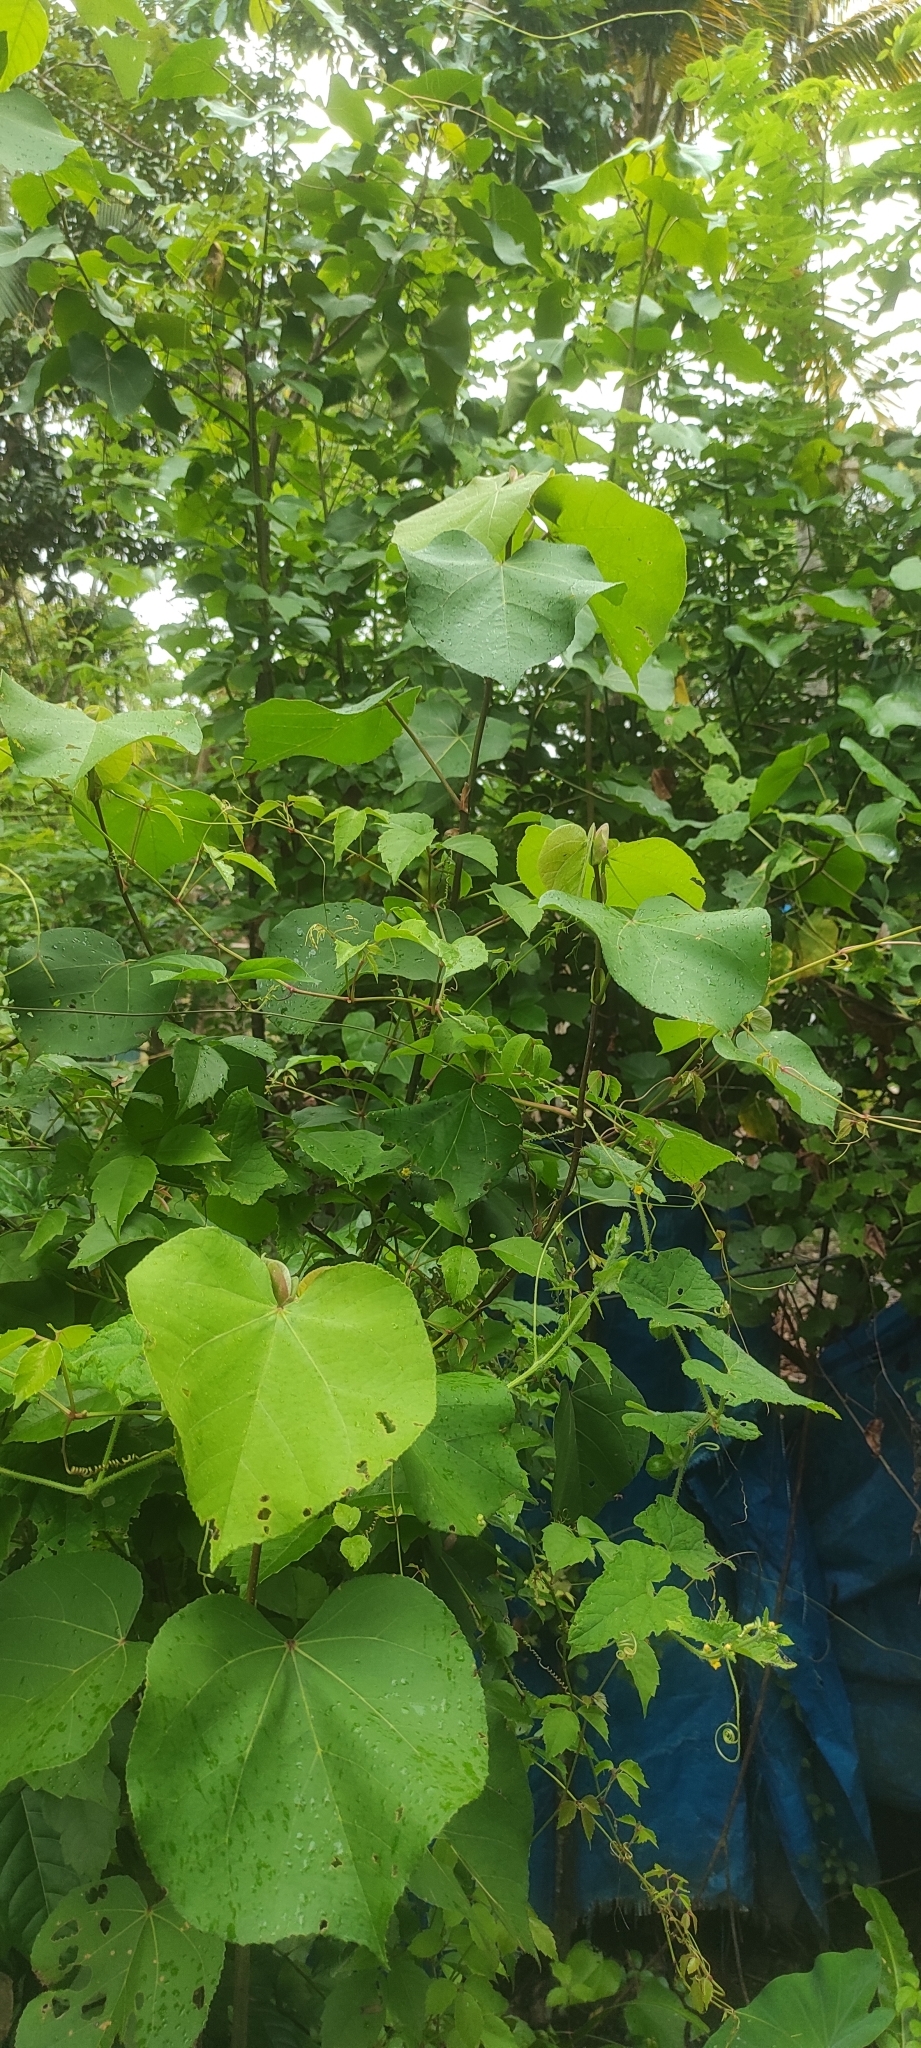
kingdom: Plantae
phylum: Tracheophyta
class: Magnoliopsida
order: Malvales
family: Malvaceae
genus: Talipariti
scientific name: Talipariti tiliaceum
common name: Sea hibiscus
